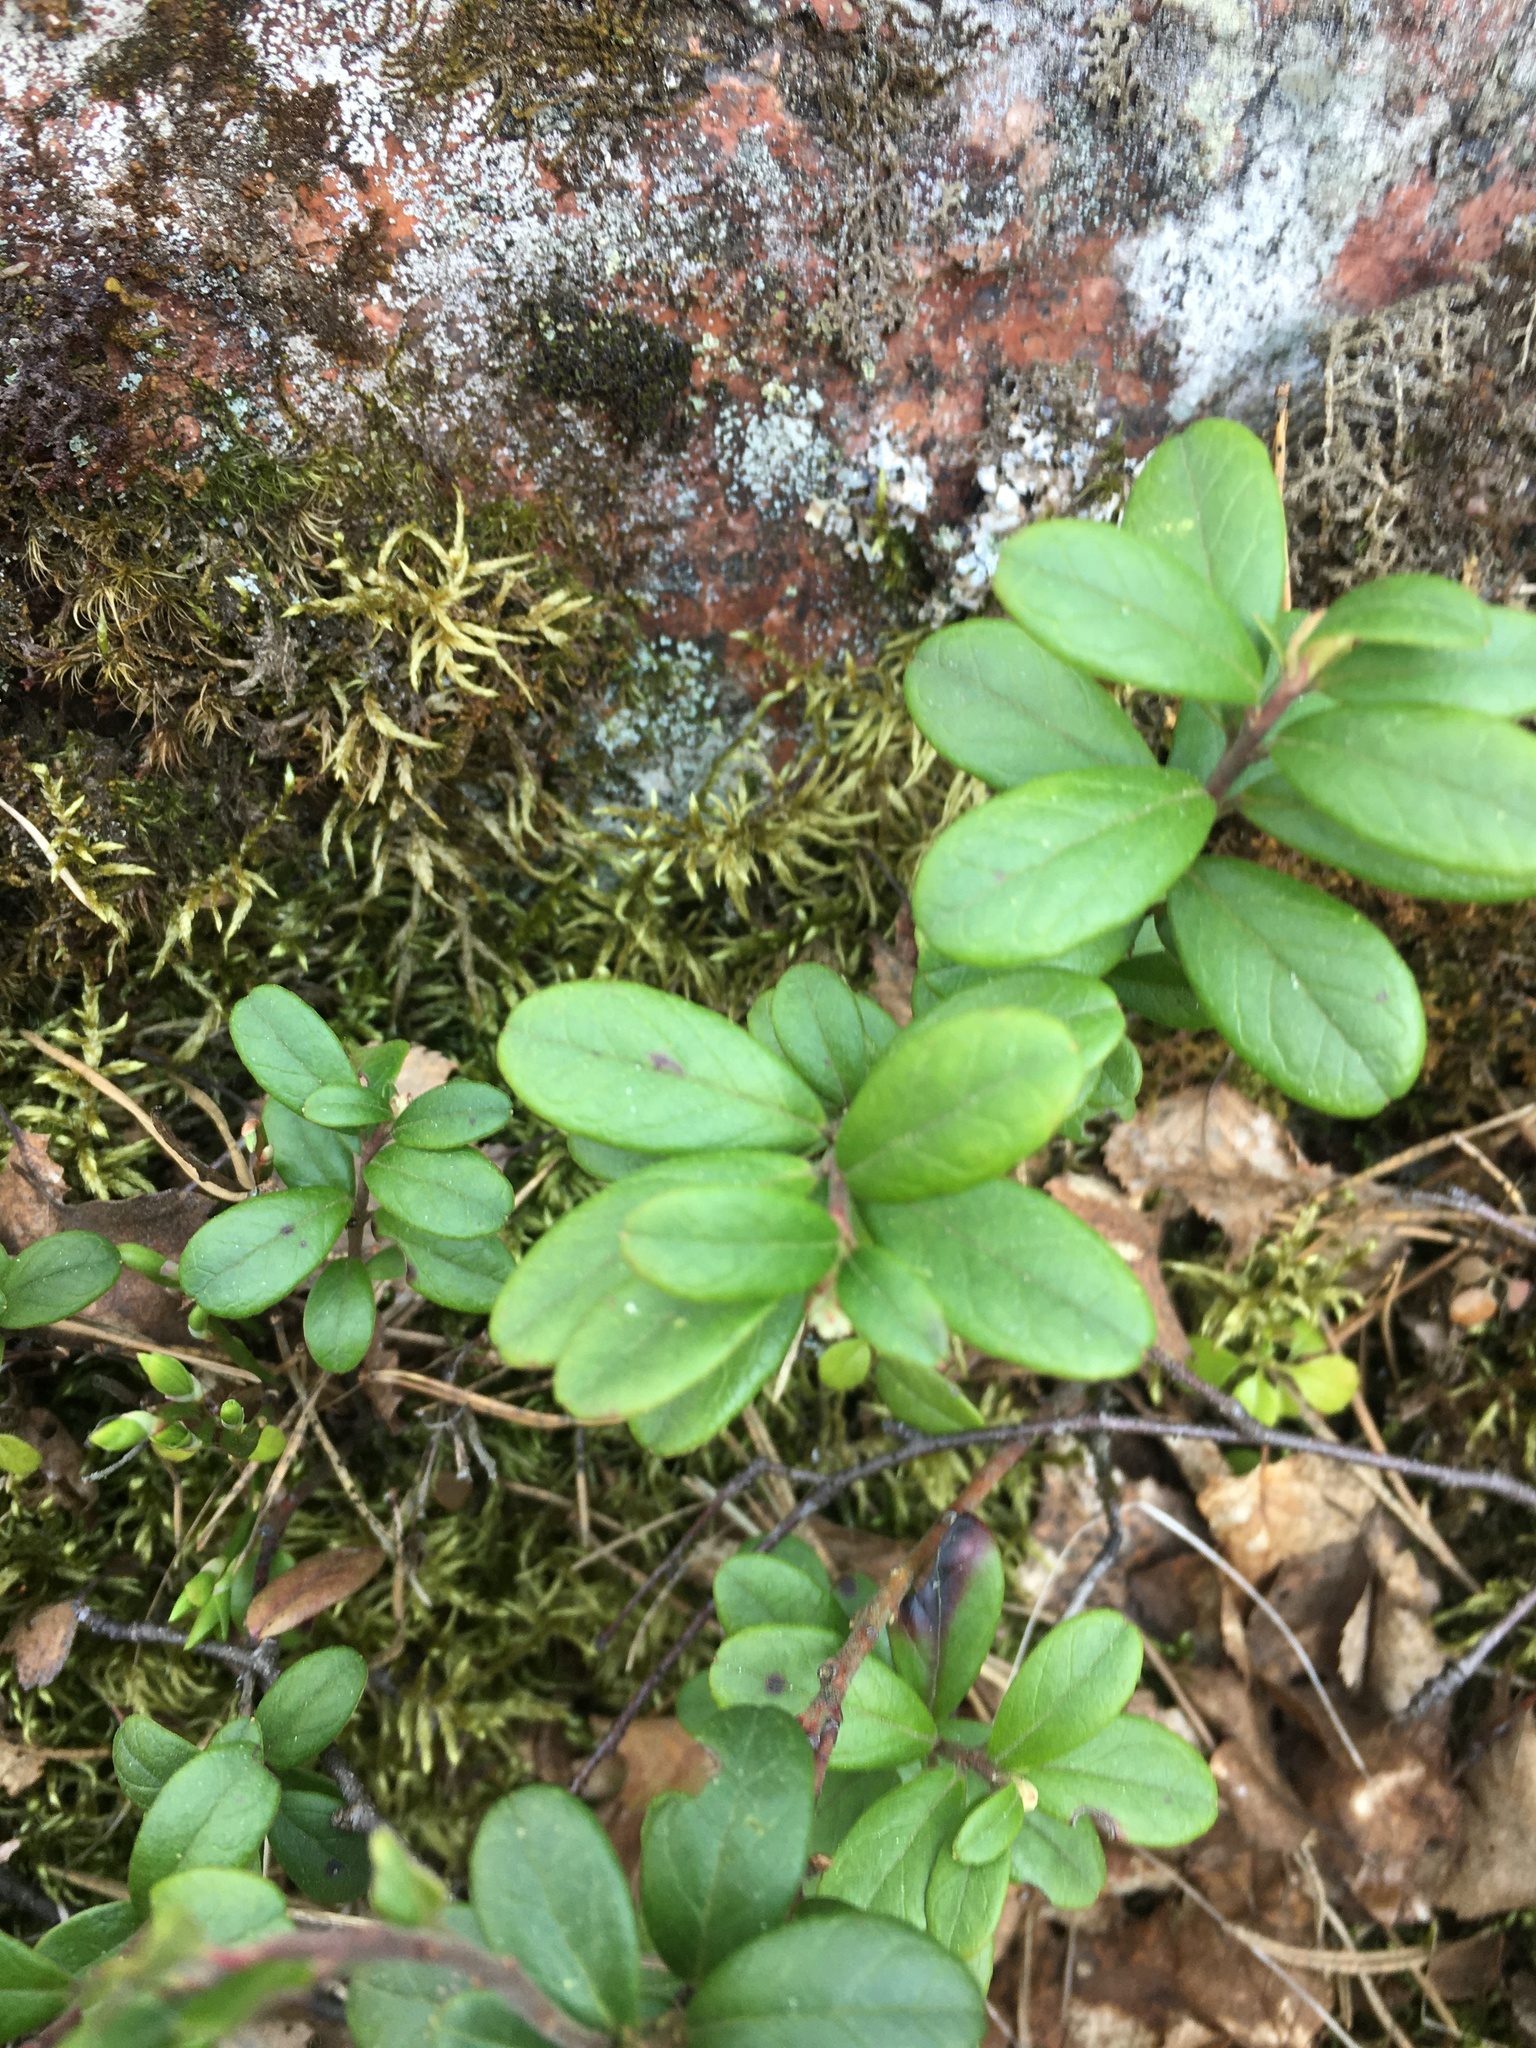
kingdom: Plantae
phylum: Tracheophyta
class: Magnoliopsida
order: Ericales
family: Ericaceae
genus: Vaccinium
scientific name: Vaccinium vitis-idaea
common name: Cowberry
